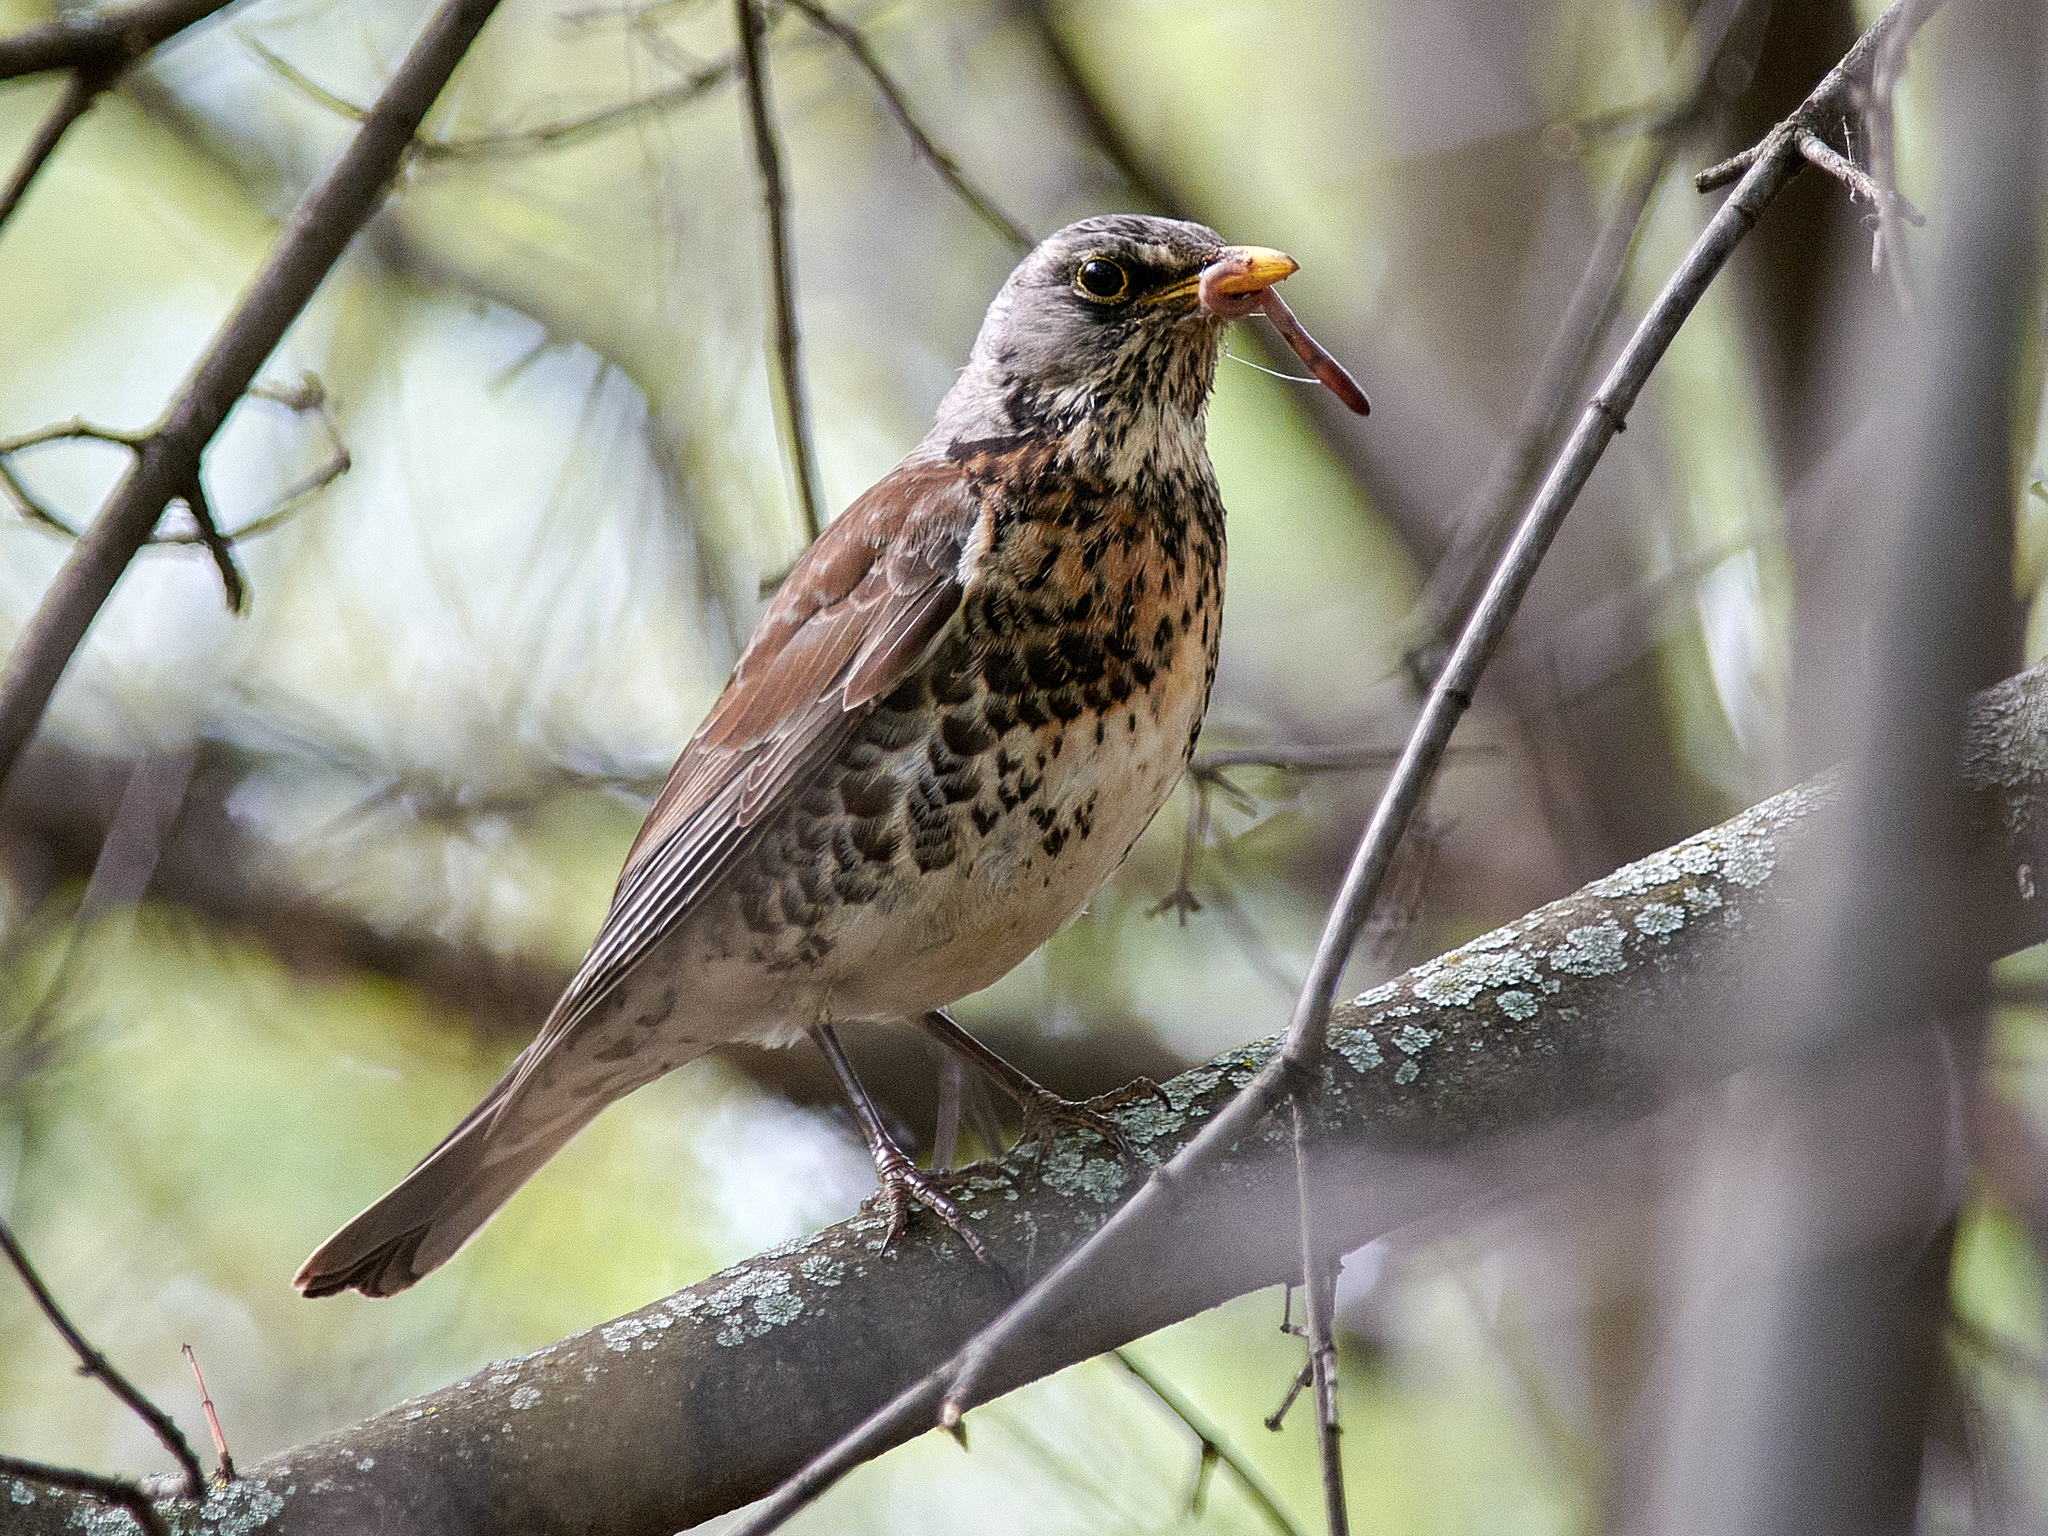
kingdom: Animalia
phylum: Chordata
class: Aves
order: Passeriformes
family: Turdidae
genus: Turdus
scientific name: Turdus pilaris
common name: Fieldfare
